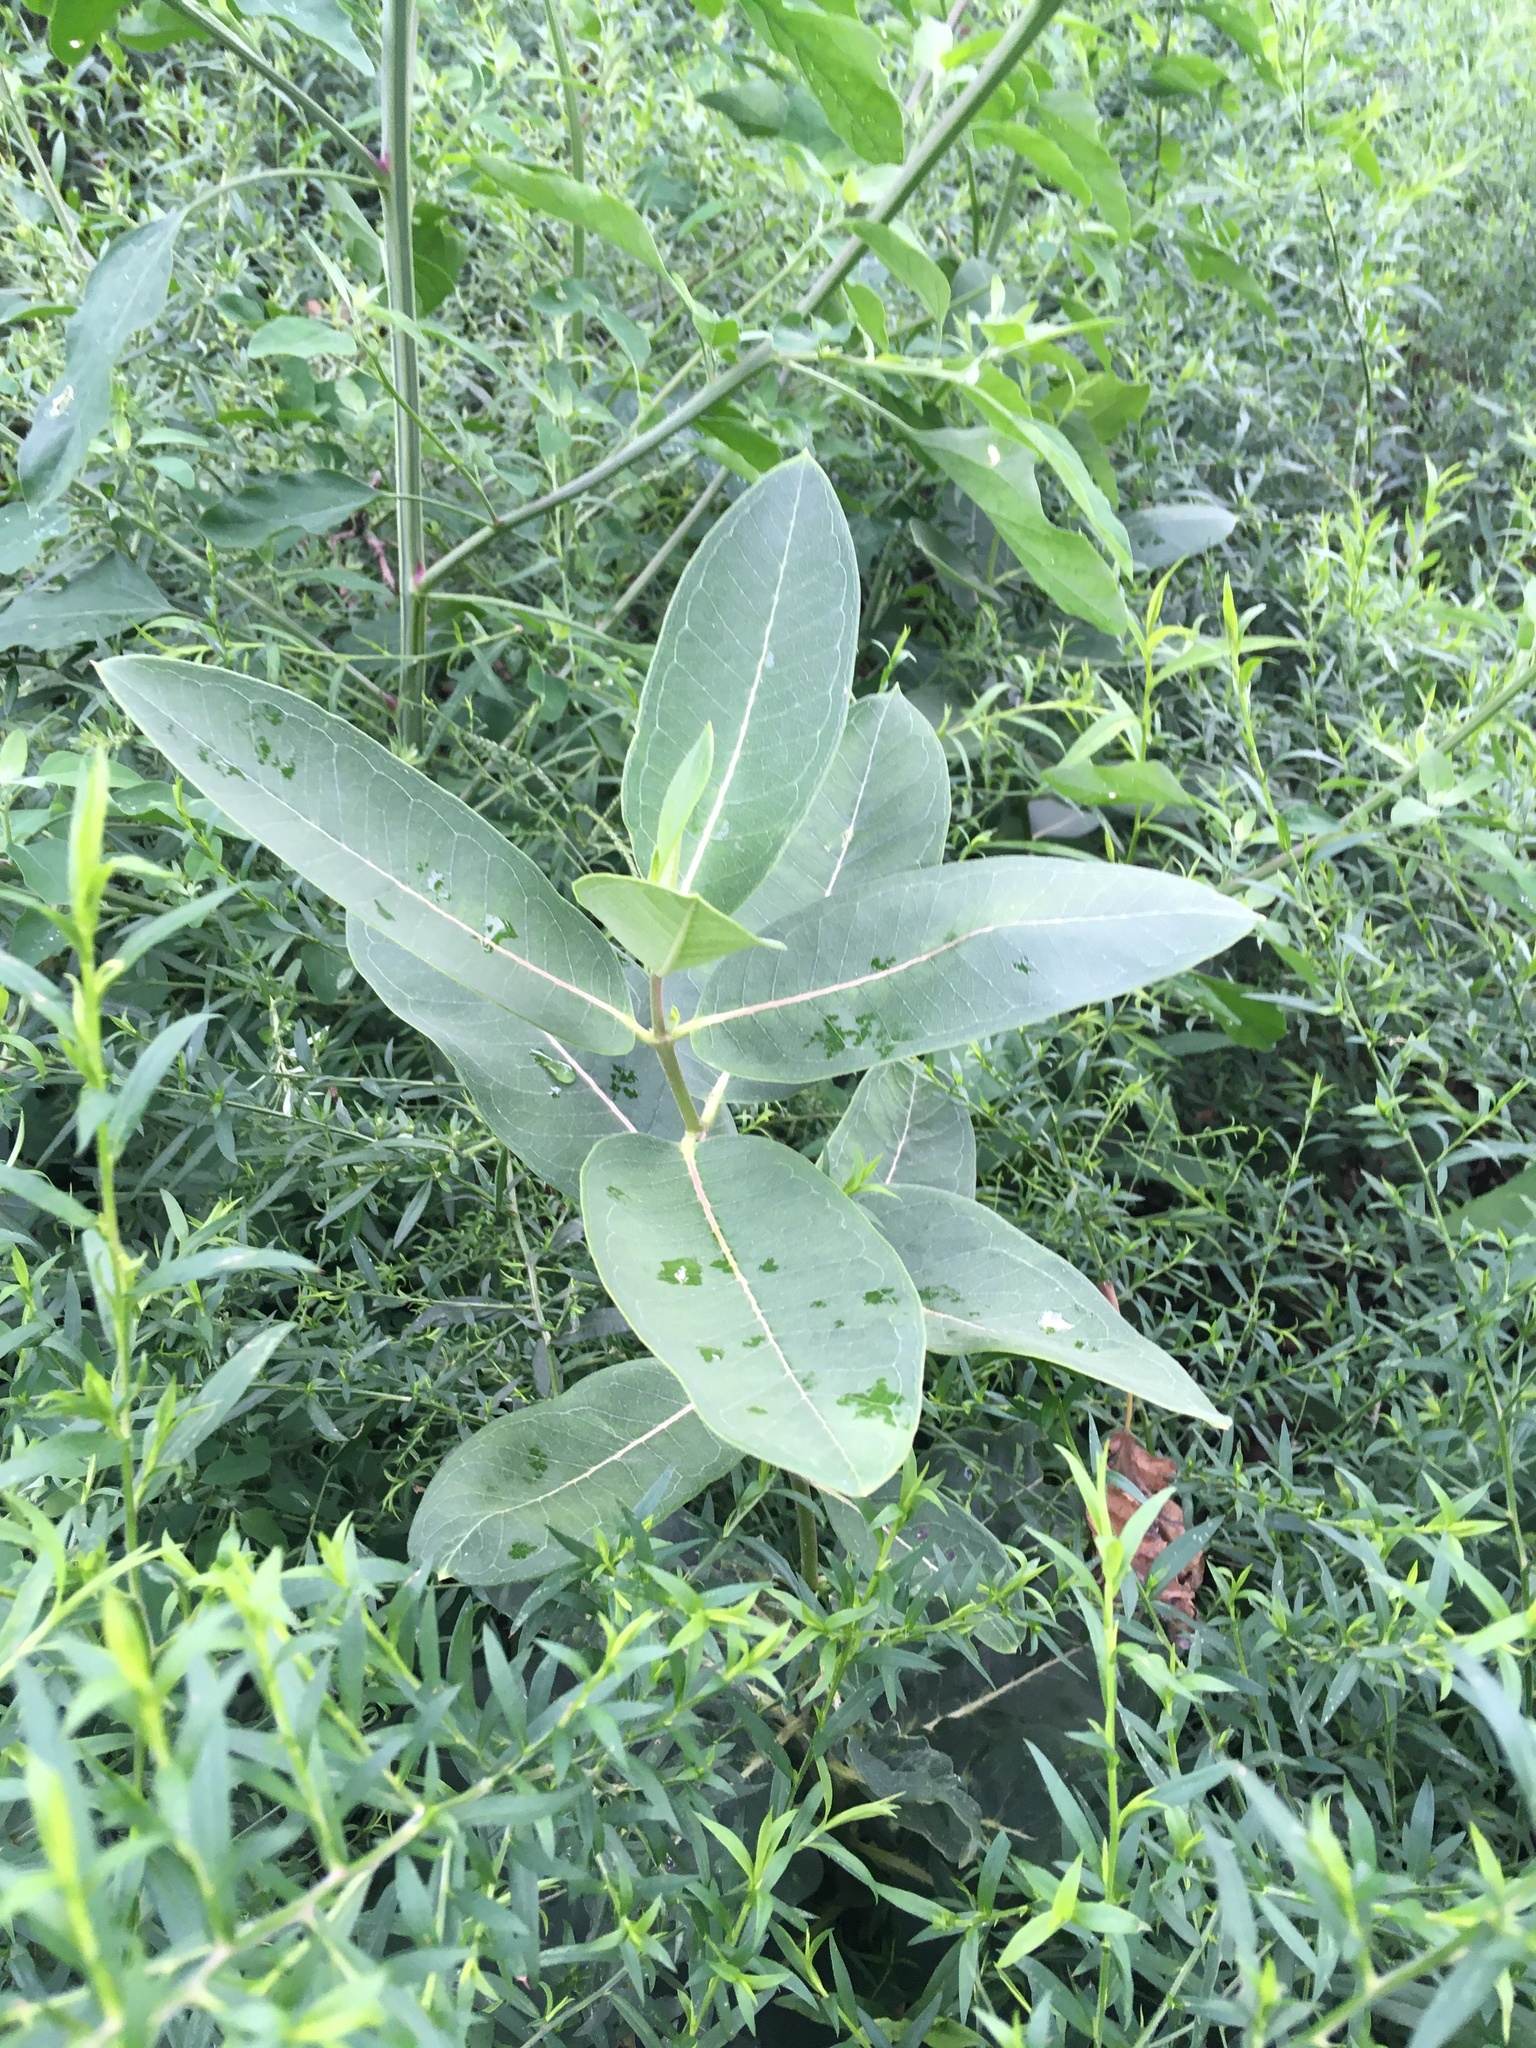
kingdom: Plantae
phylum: Tracheophyta
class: Magnoliopsida
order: Gentianales
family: Apocynaceae
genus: Asclepias
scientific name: Asclepias syriaca
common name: Common milkweed
